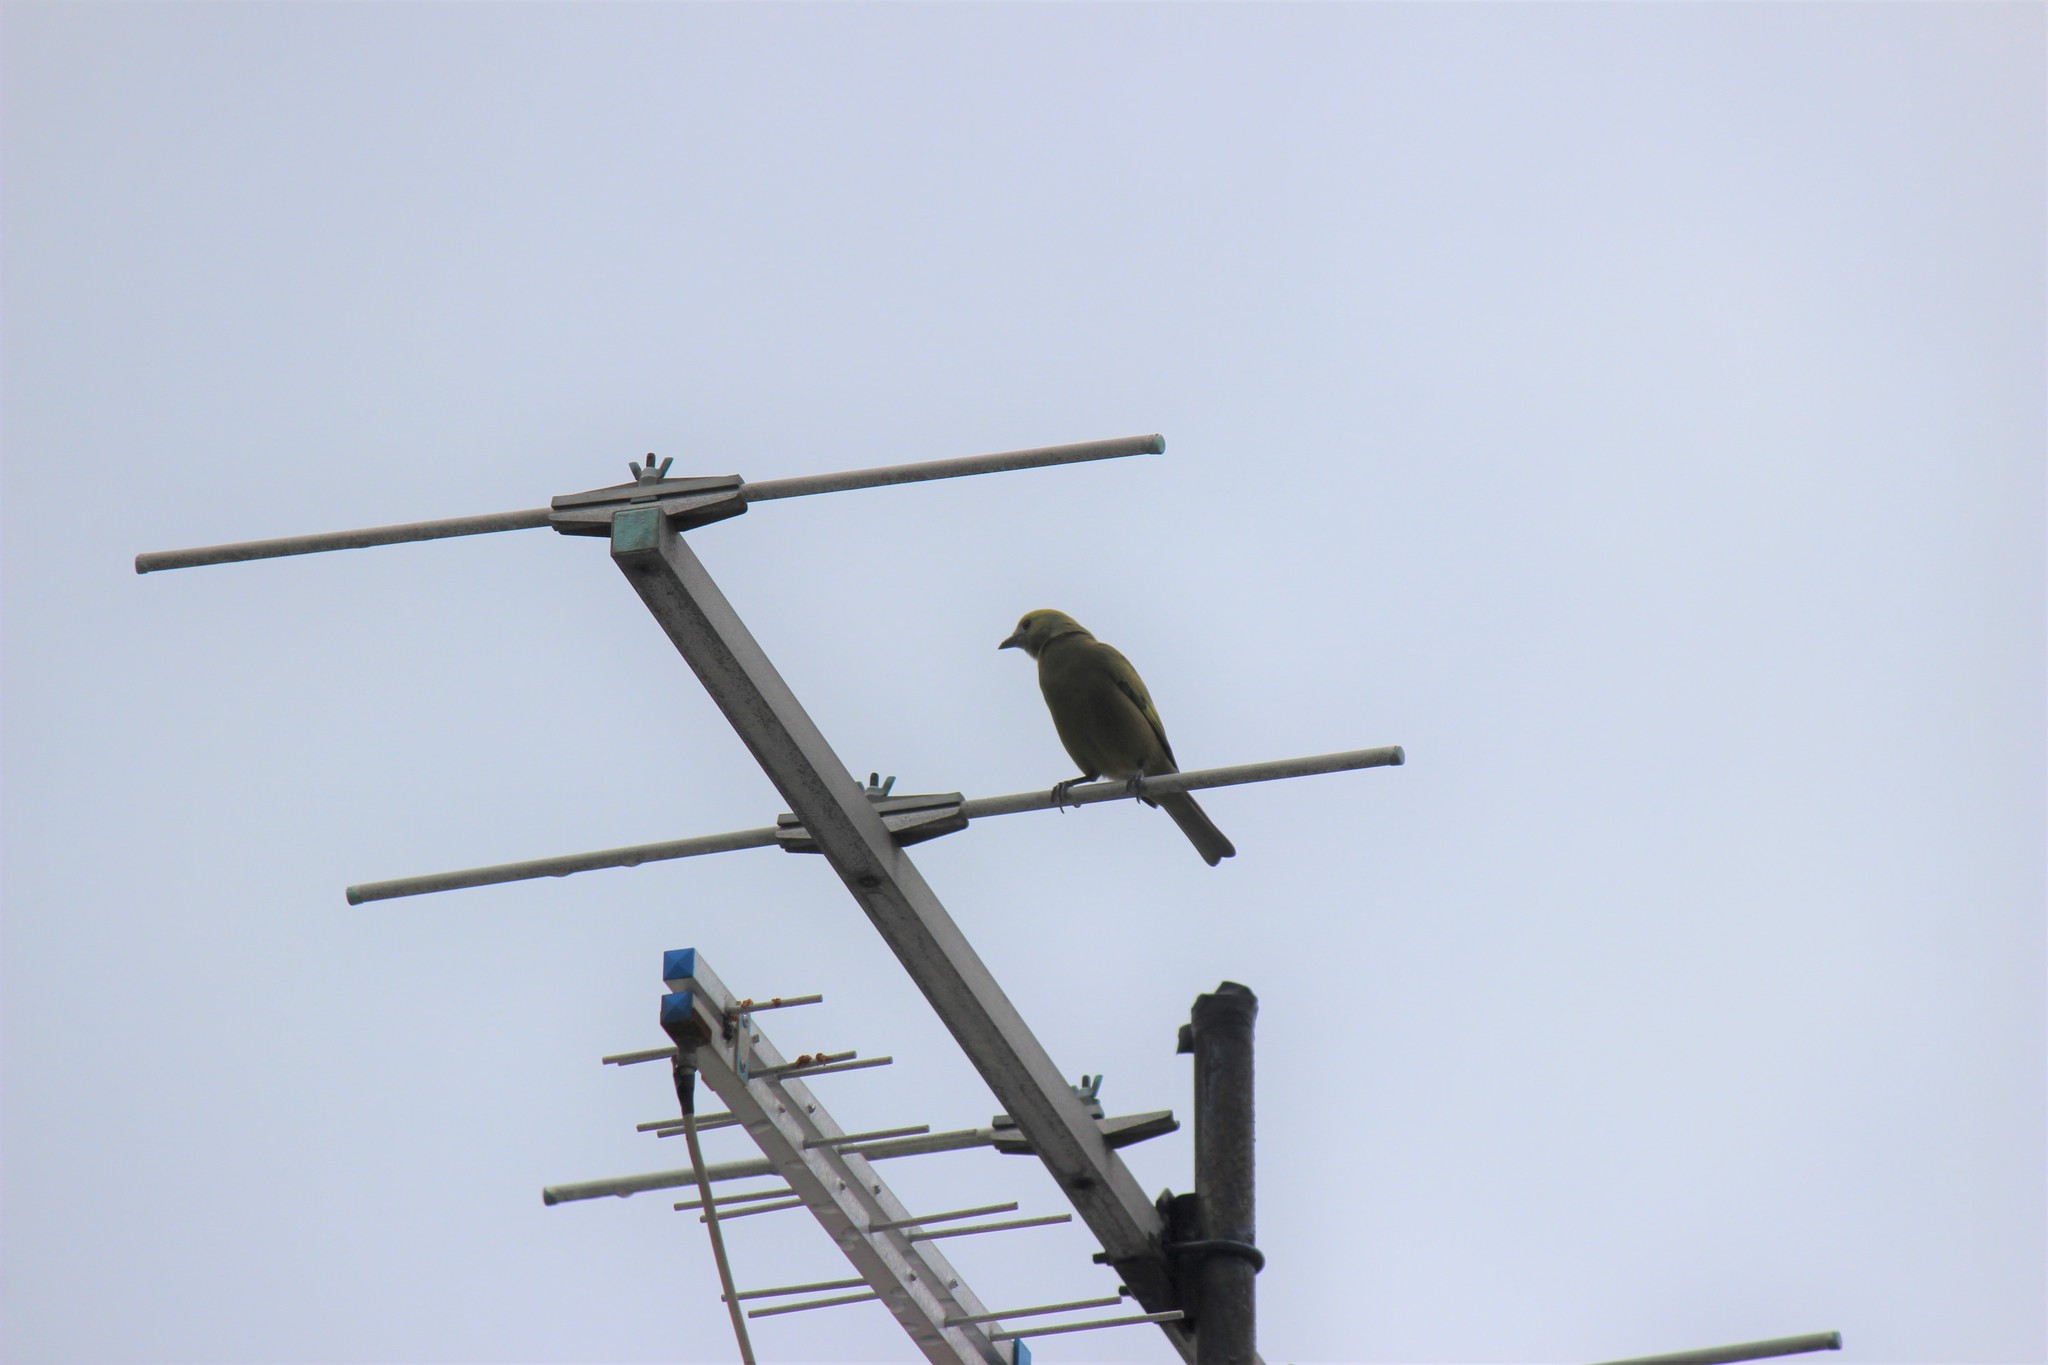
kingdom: Animalia
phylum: Chordata
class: Aves
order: Passeriformes
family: Thraupidae
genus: Thraupis
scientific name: Thraupis palmarum
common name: Palm tanager
